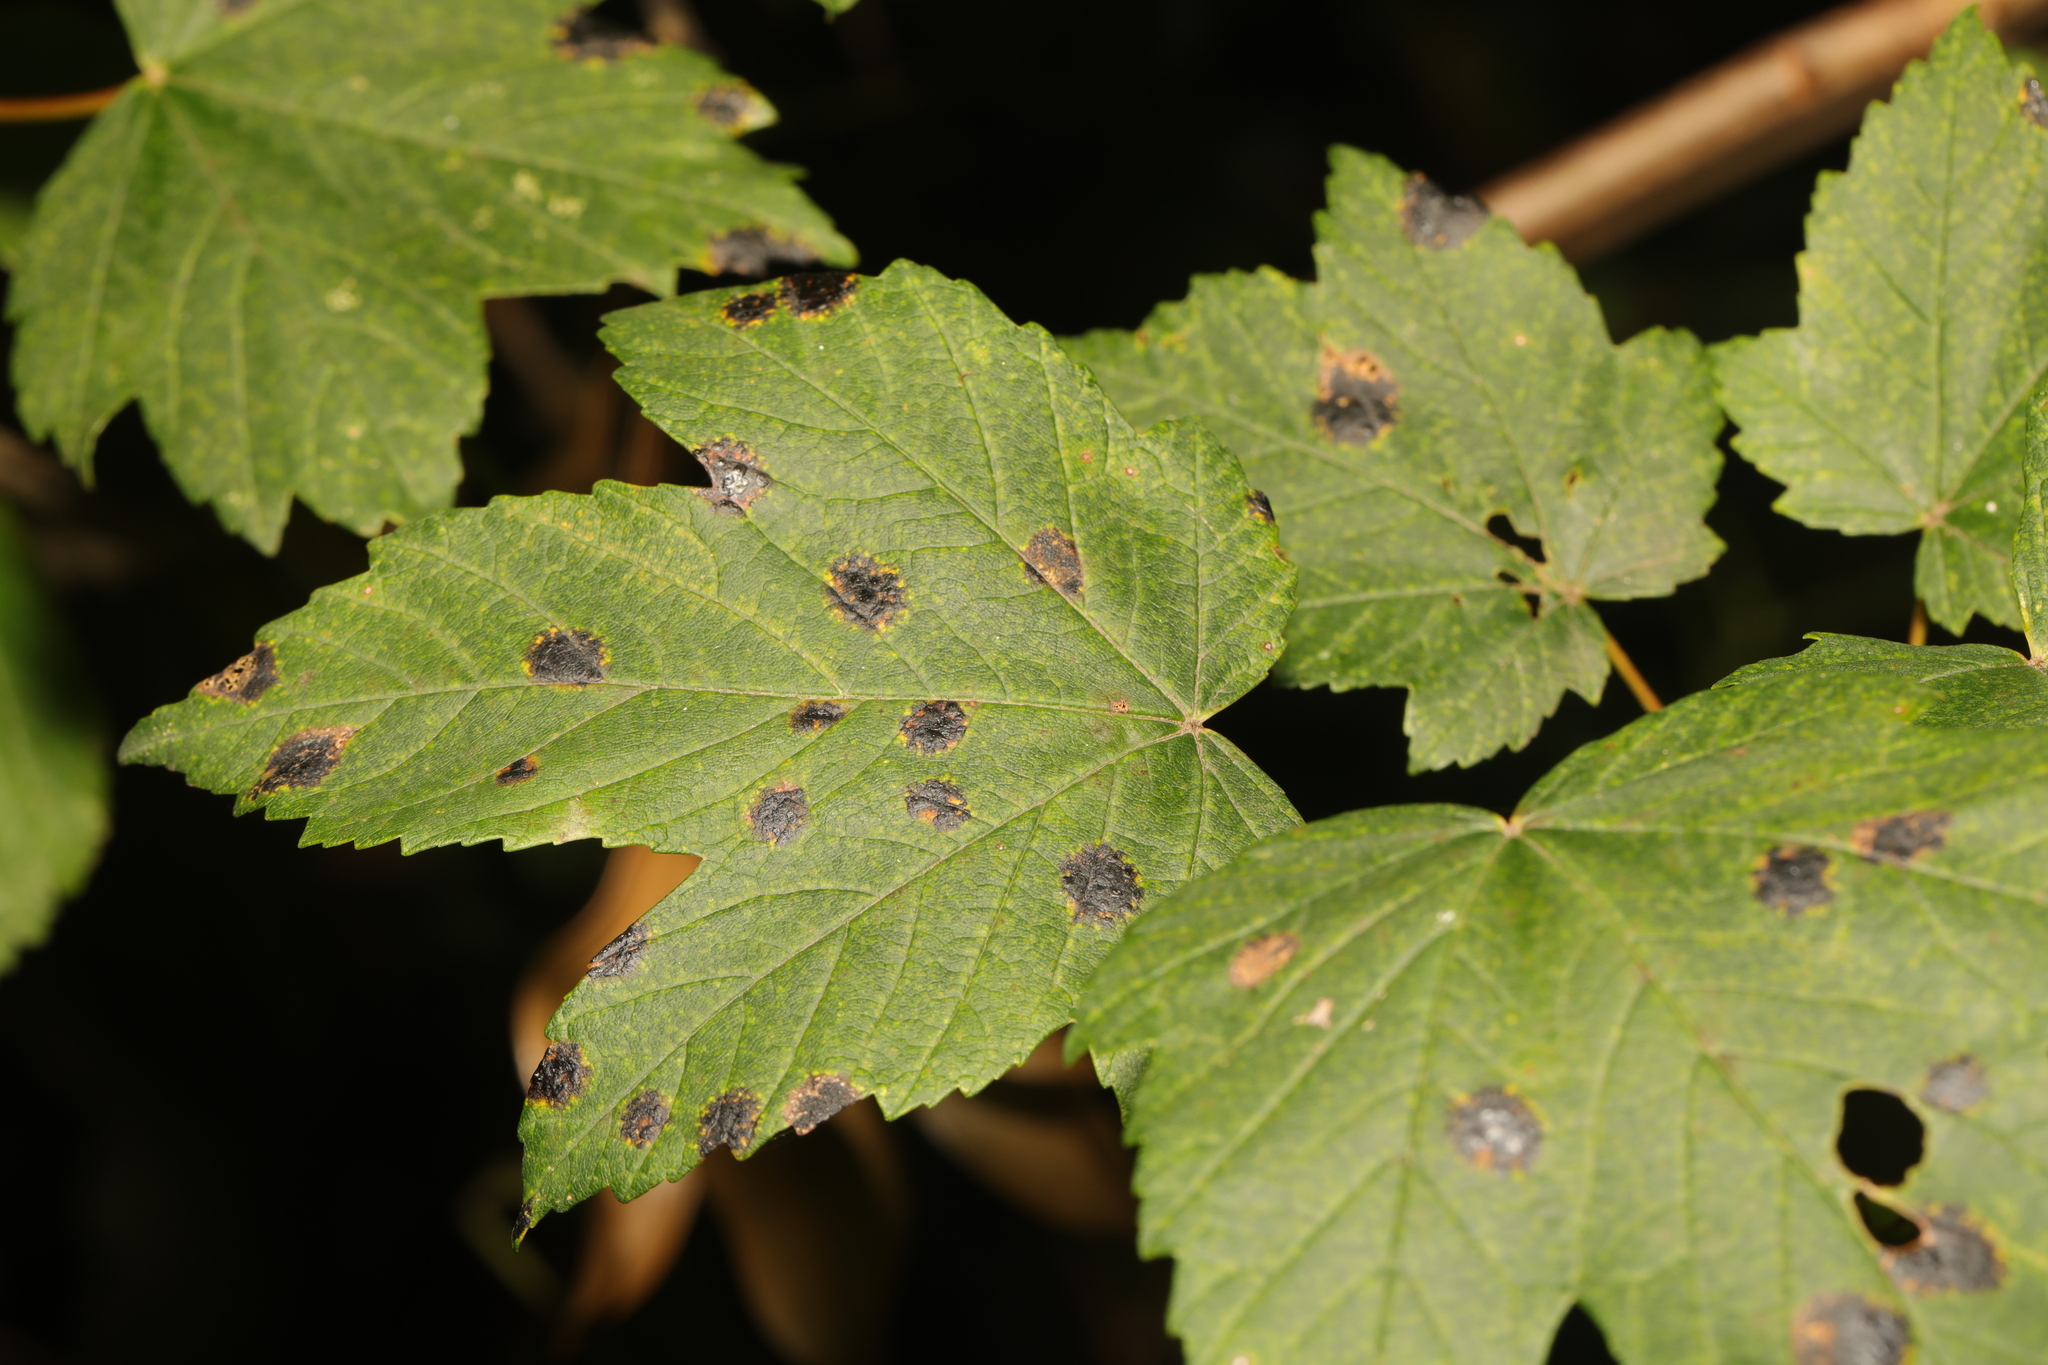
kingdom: Fungi
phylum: Ascomycota
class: Leotiomycetes
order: Rhytismatales
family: Rhytismataceae
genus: Rhytisma
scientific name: Rhytisma acerinum
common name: European tar spot
